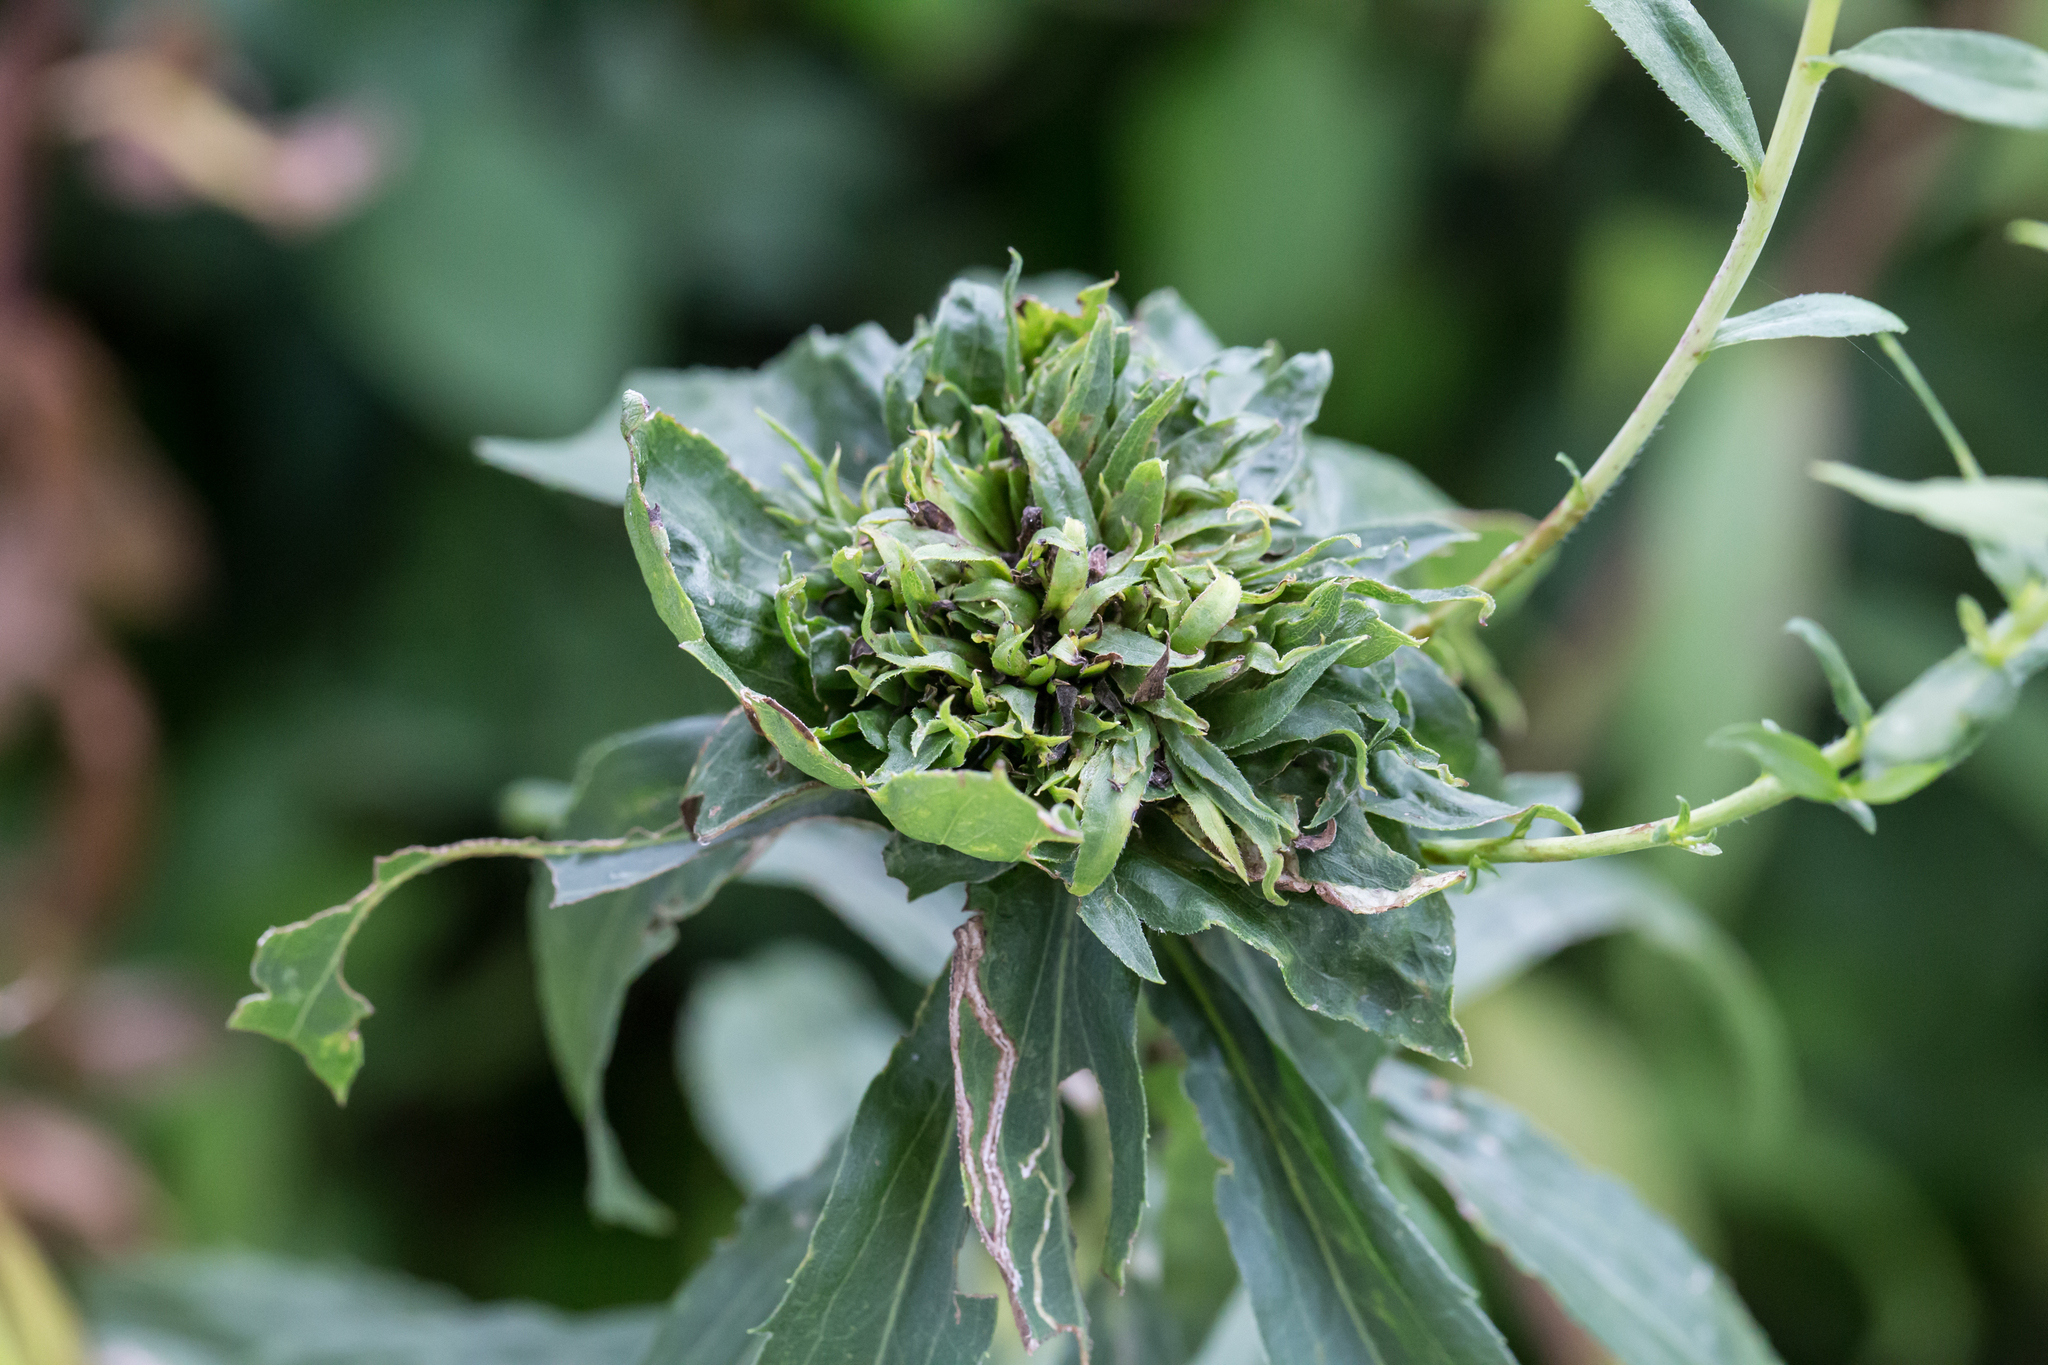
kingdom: Animalia
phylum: Arthropoda
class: Insecta
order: Diptera
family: Cecidomyiidae
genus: Rhopalomyia
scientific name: Rhopalomyia capitata
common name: Giant goldenrod bunch gall midge
